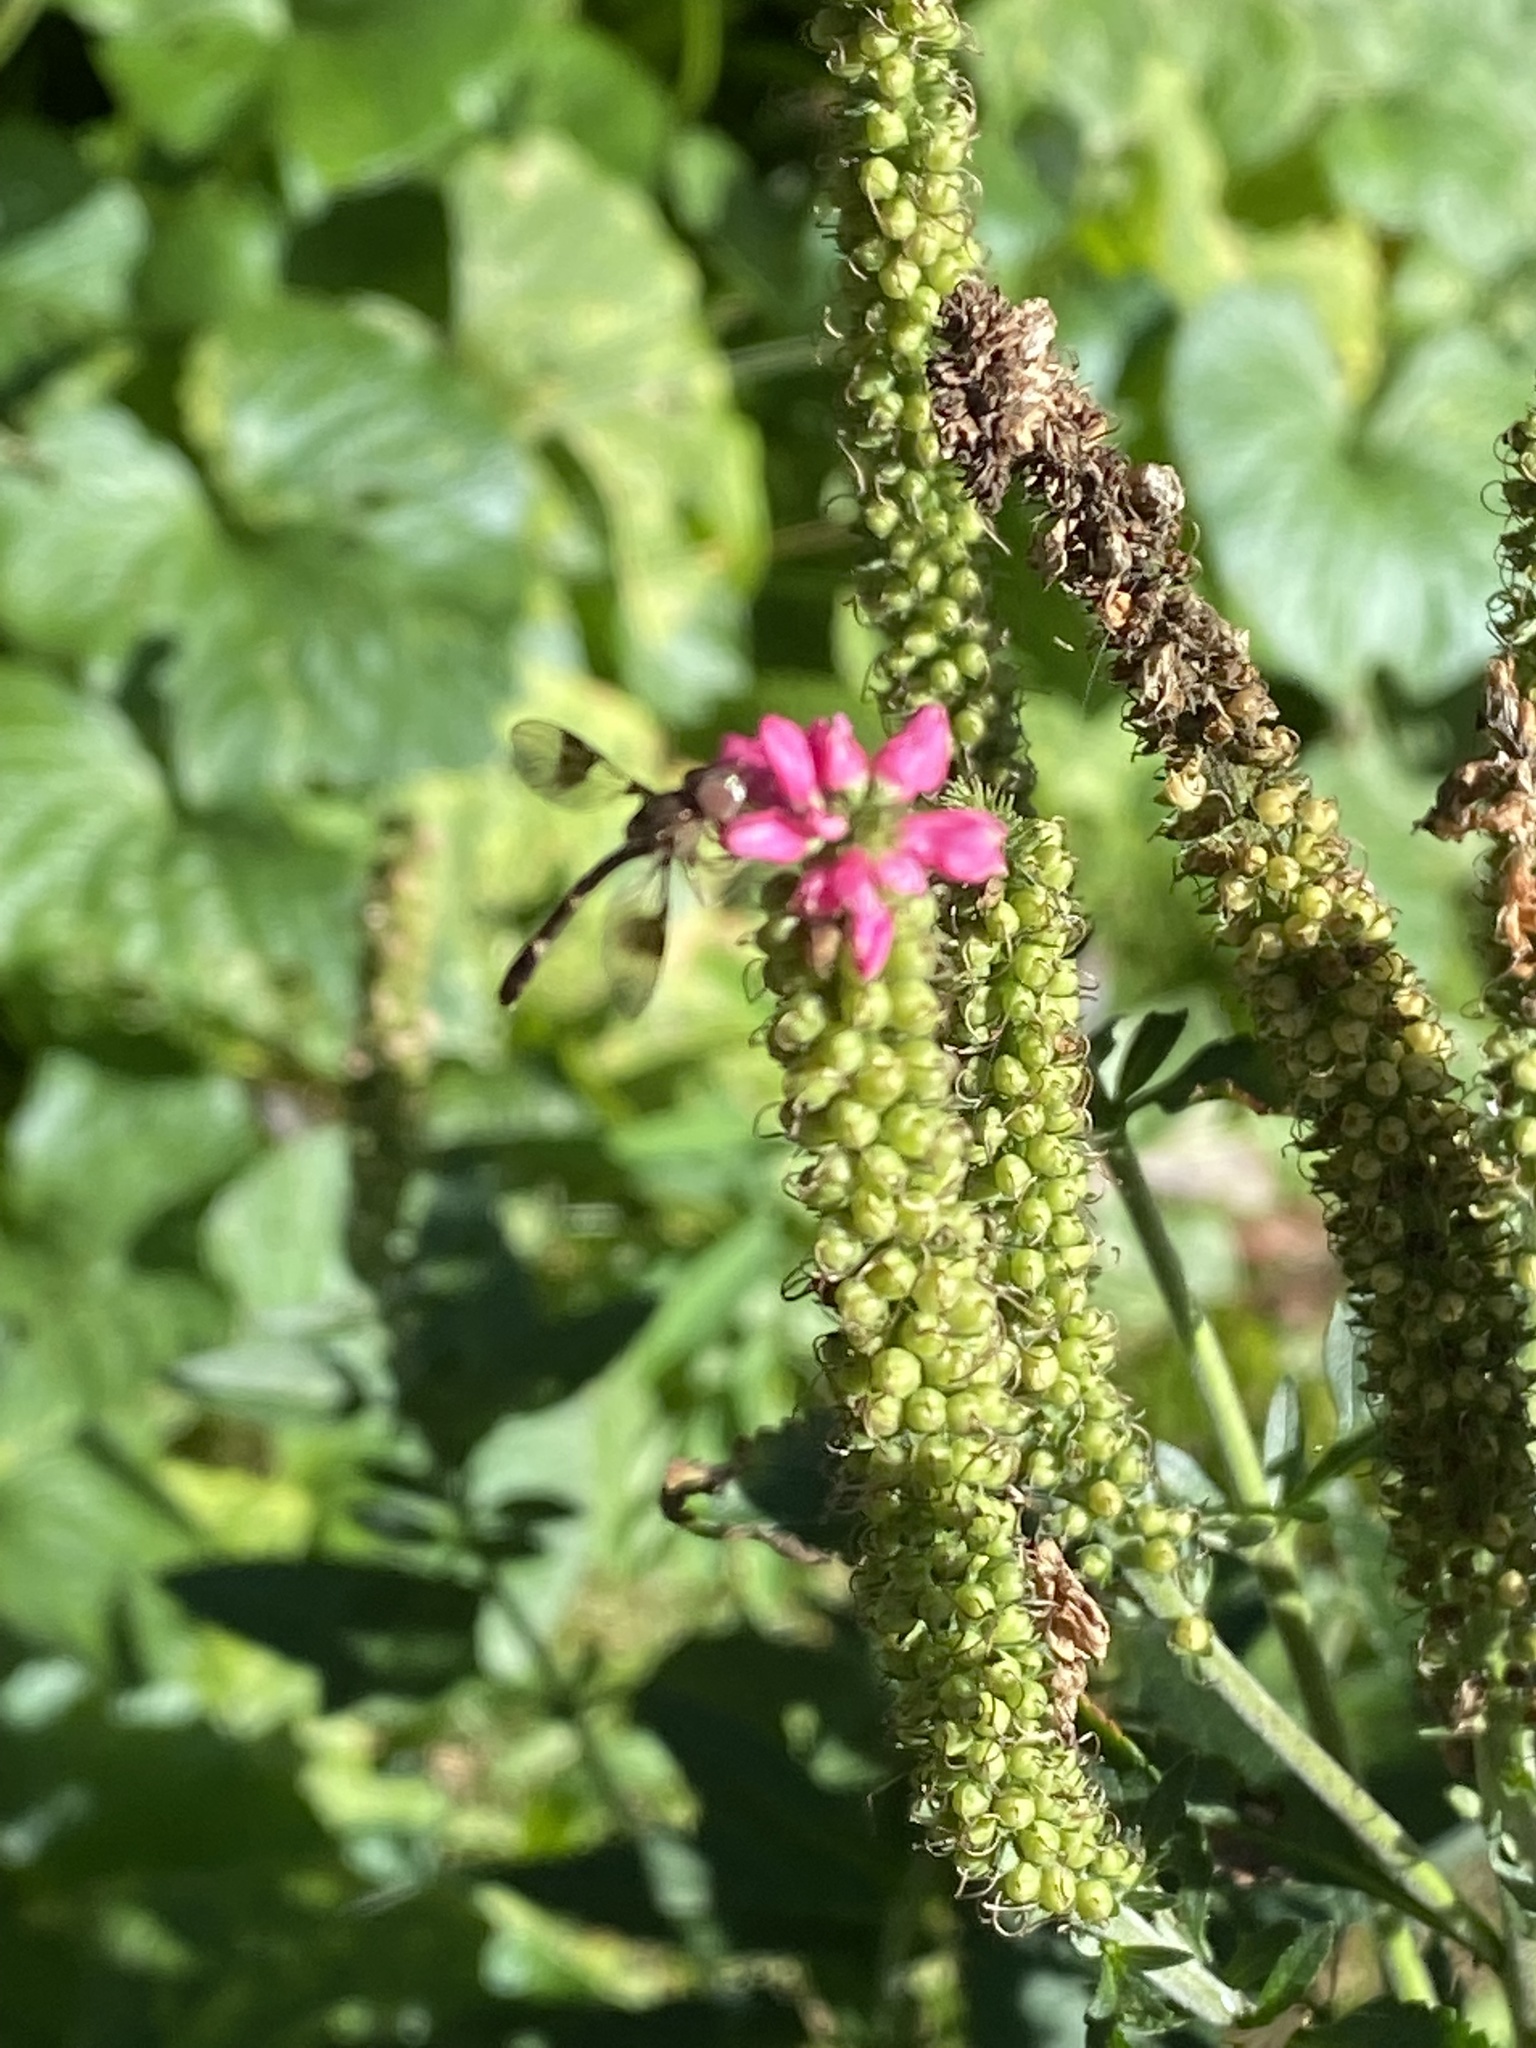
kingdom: Animalia
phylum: Arthropoda
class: Insecta
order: Diptera
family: Syrphidae
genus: Hypocritanus
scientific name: Hypocritanus fascipennis
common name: Eastern band-winged hover fly
